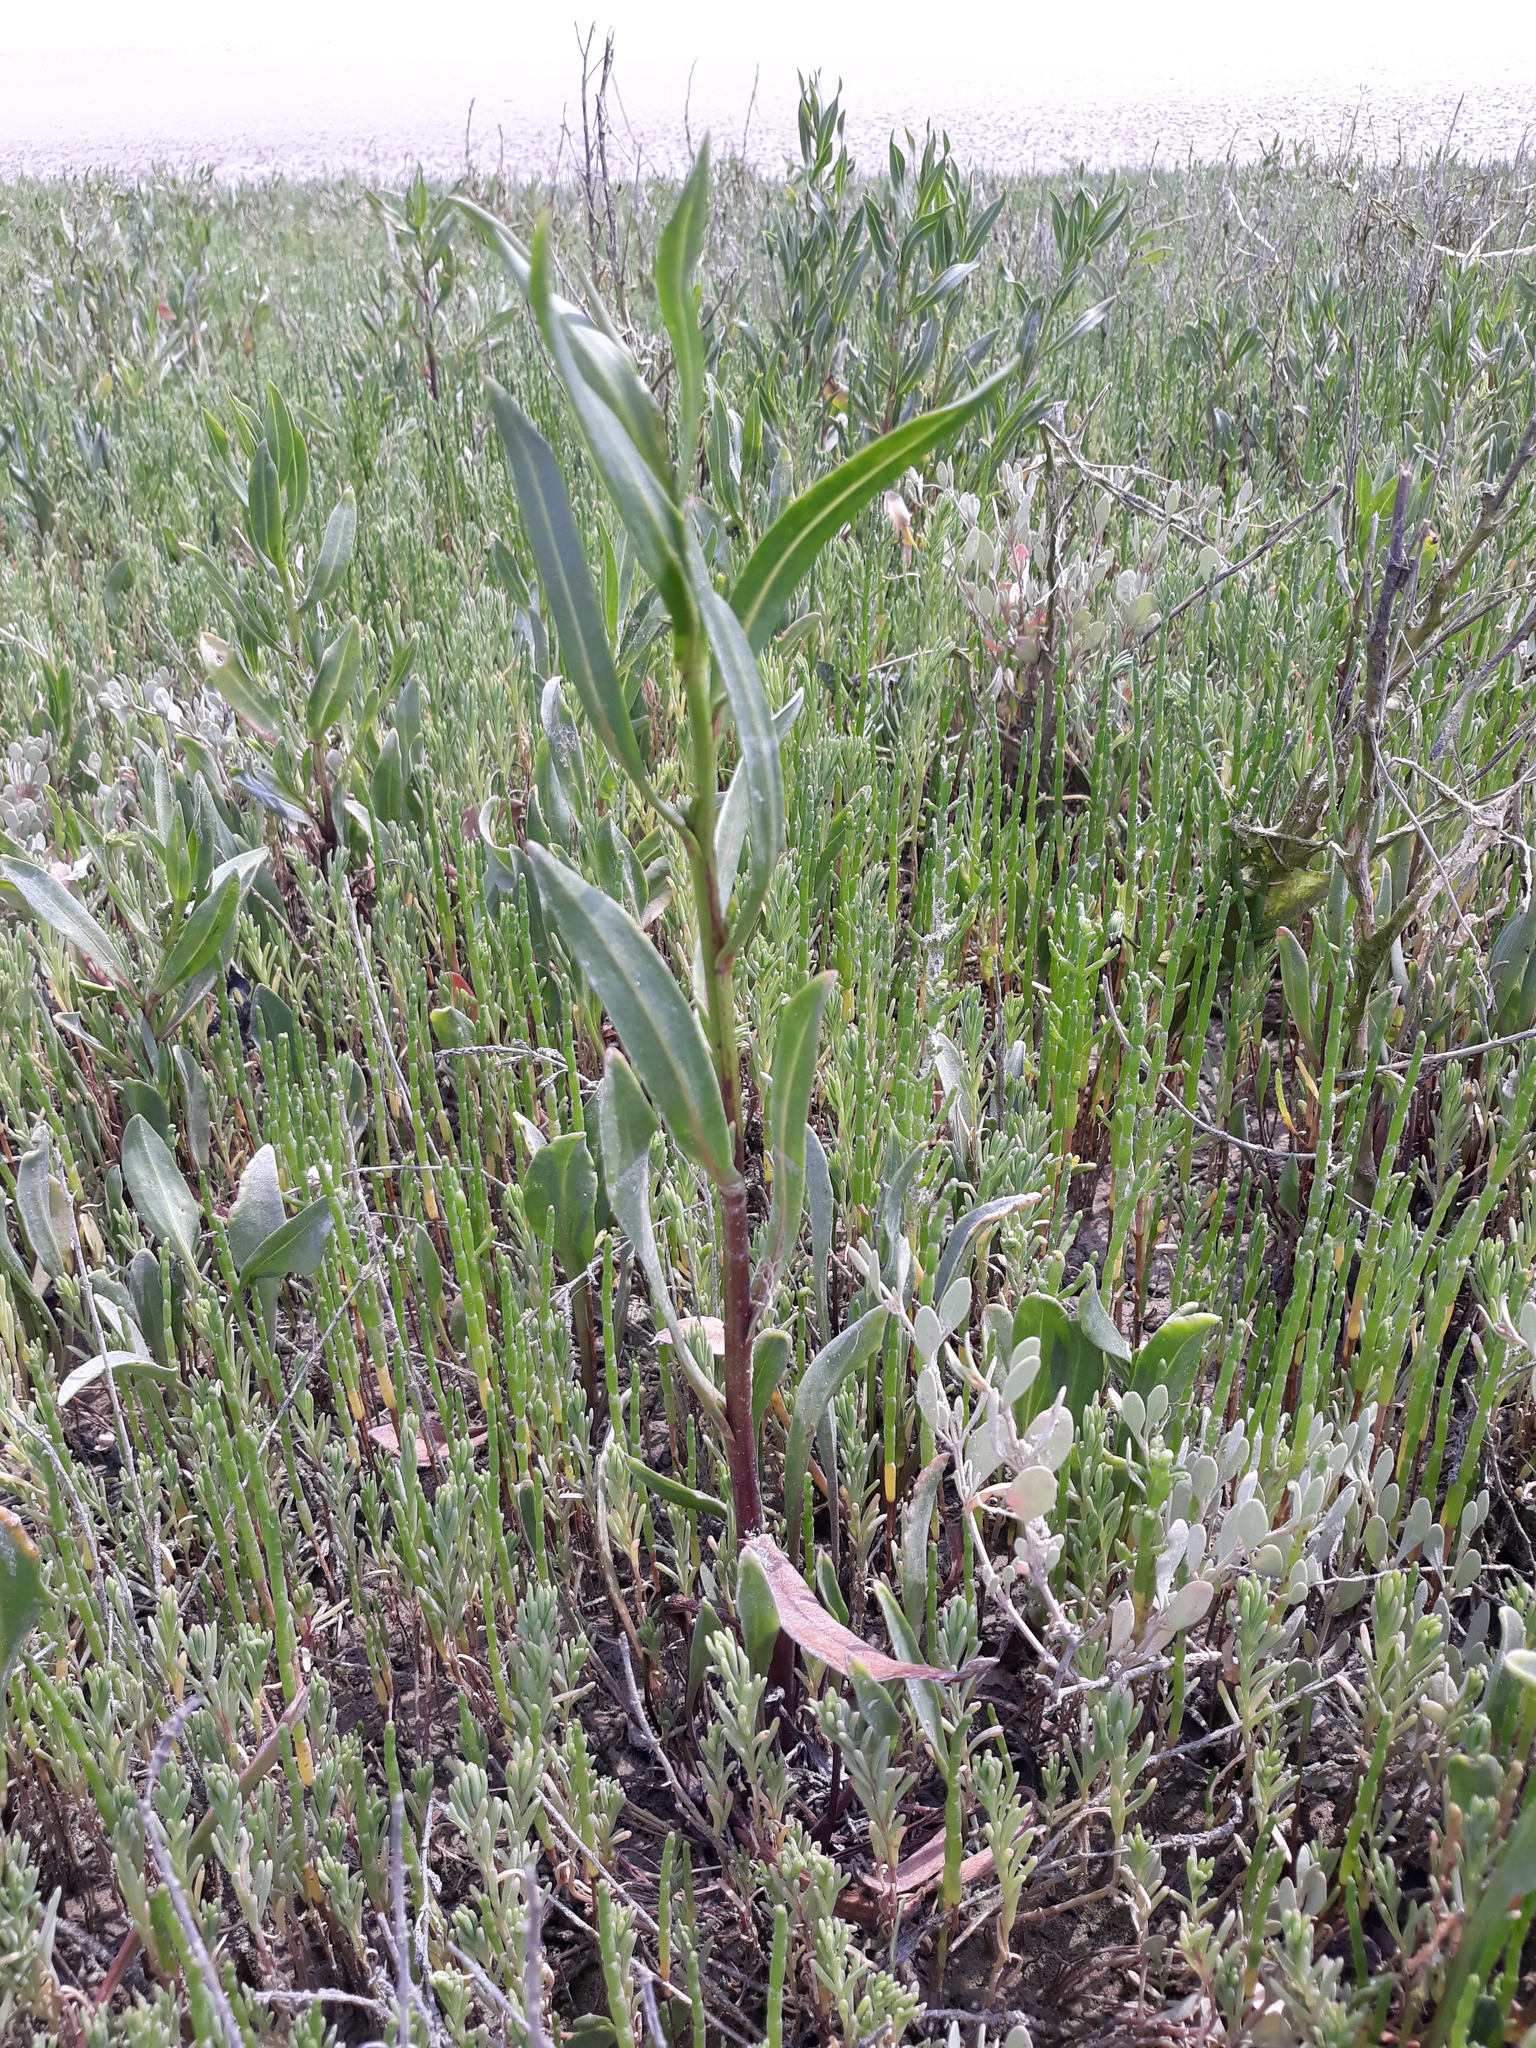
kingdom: Plantae
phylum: Tracheophyta
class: Magnoliopsida
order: Asterales
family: Asteraceae
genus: Tripolium
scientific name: Tripolium pannonicum
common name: Sea aster
